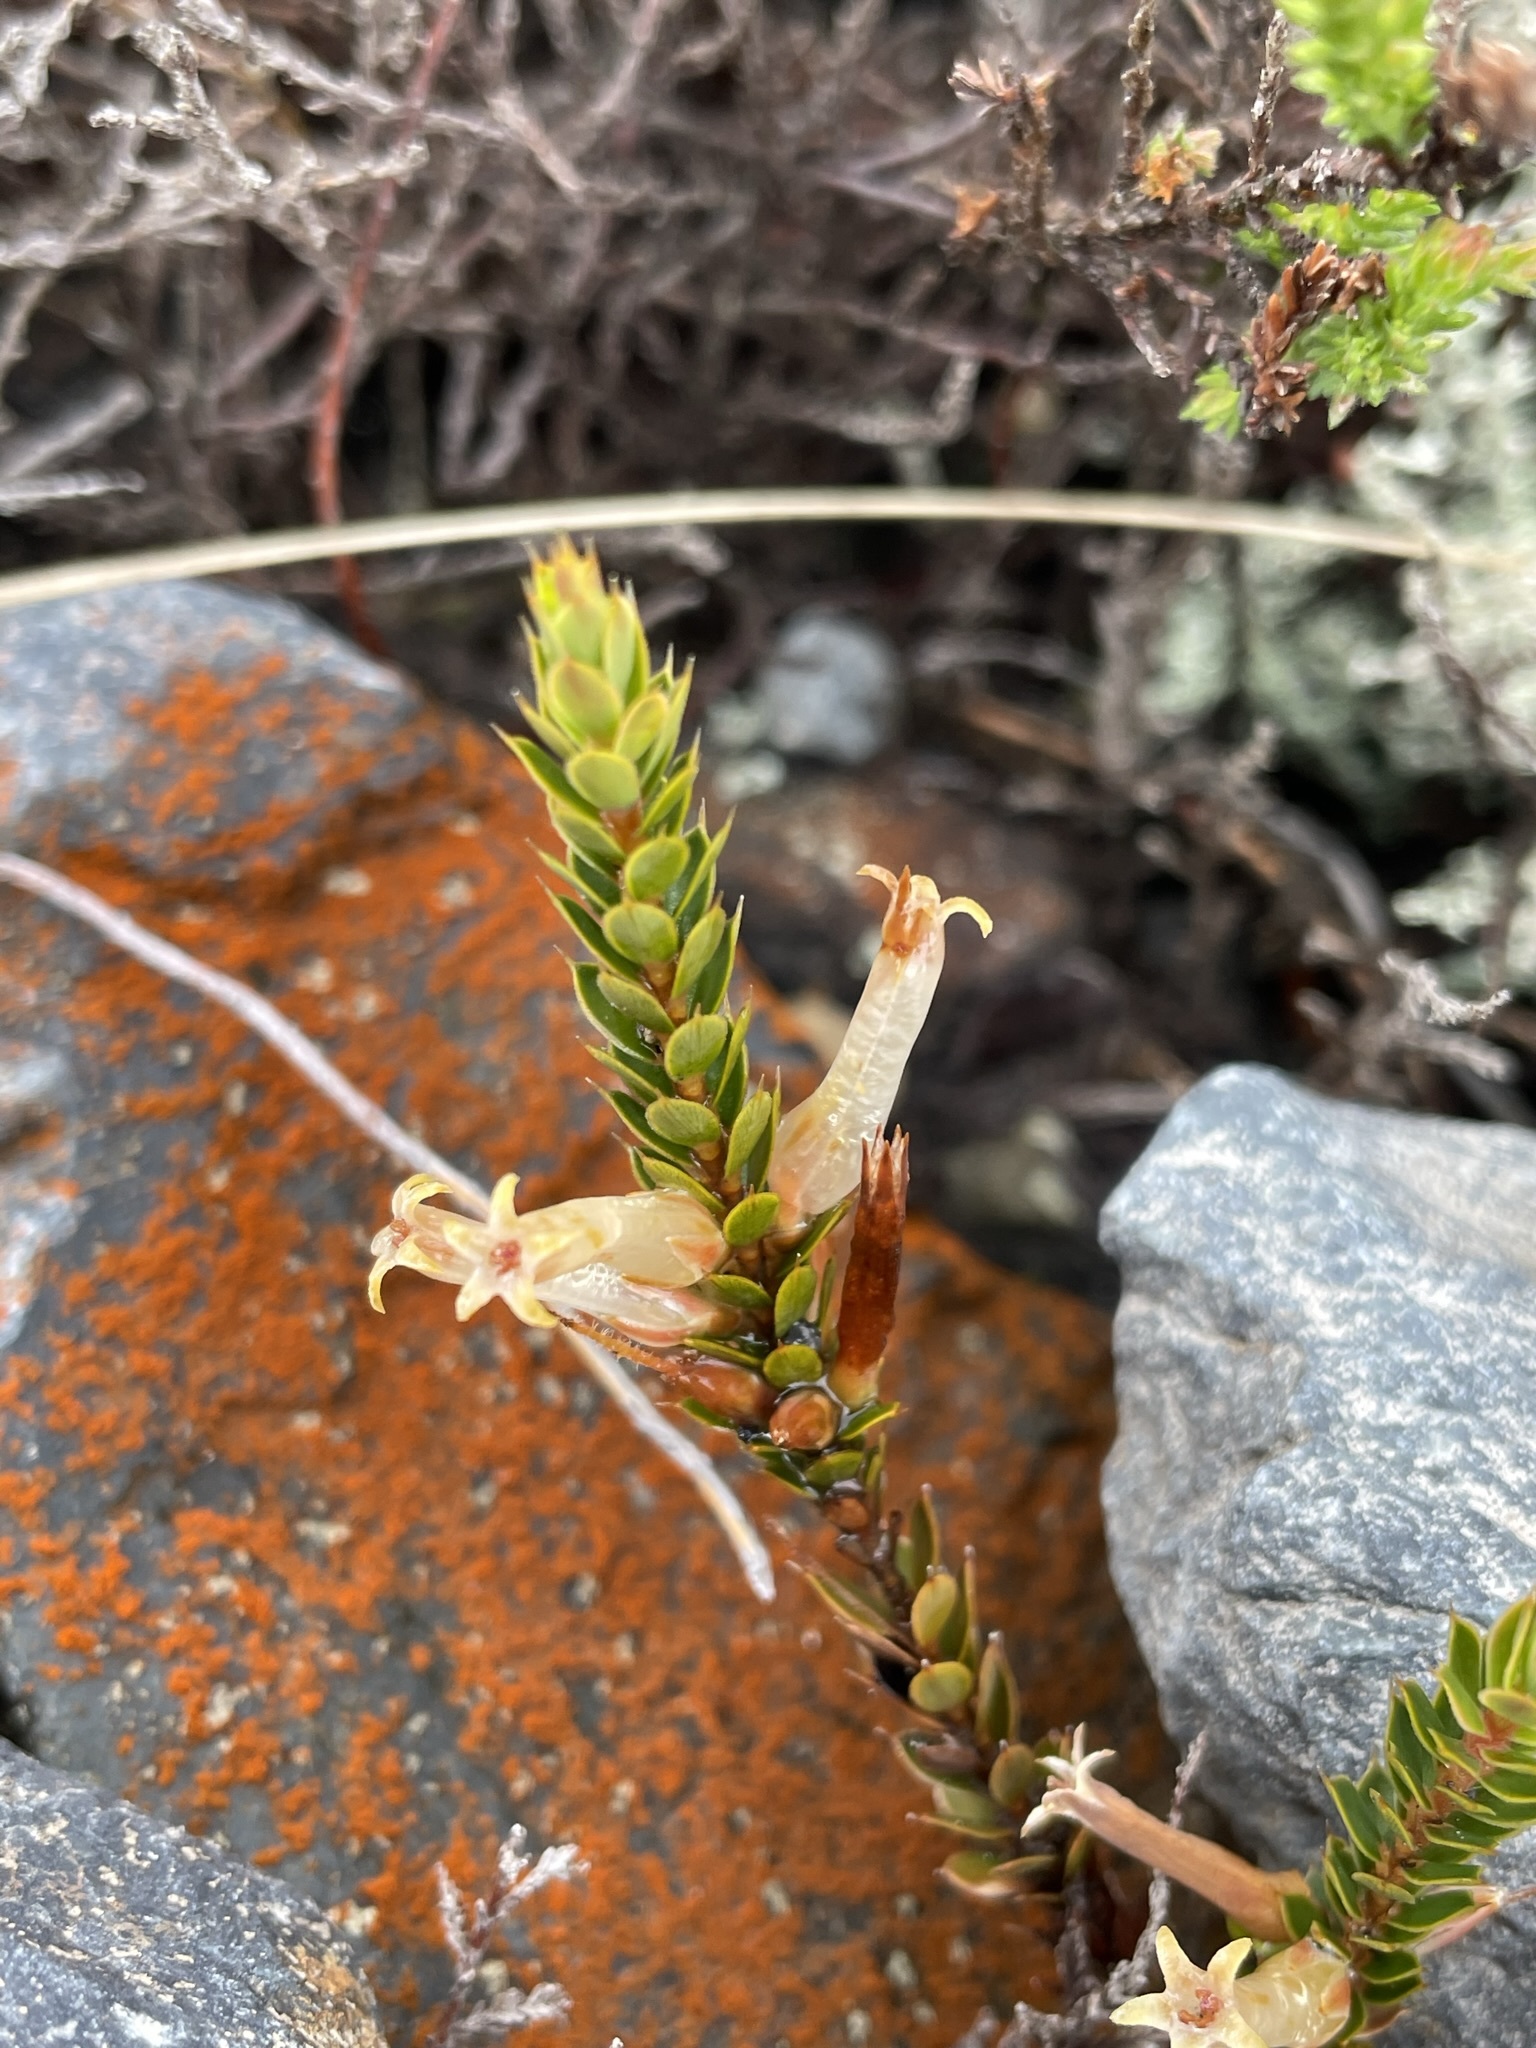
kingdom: Plantae
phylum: Tracheophyta
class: Magnoliopsida
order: Ericales
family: Ericaceae
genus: Styphelia
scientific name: Styphelia nesophila
